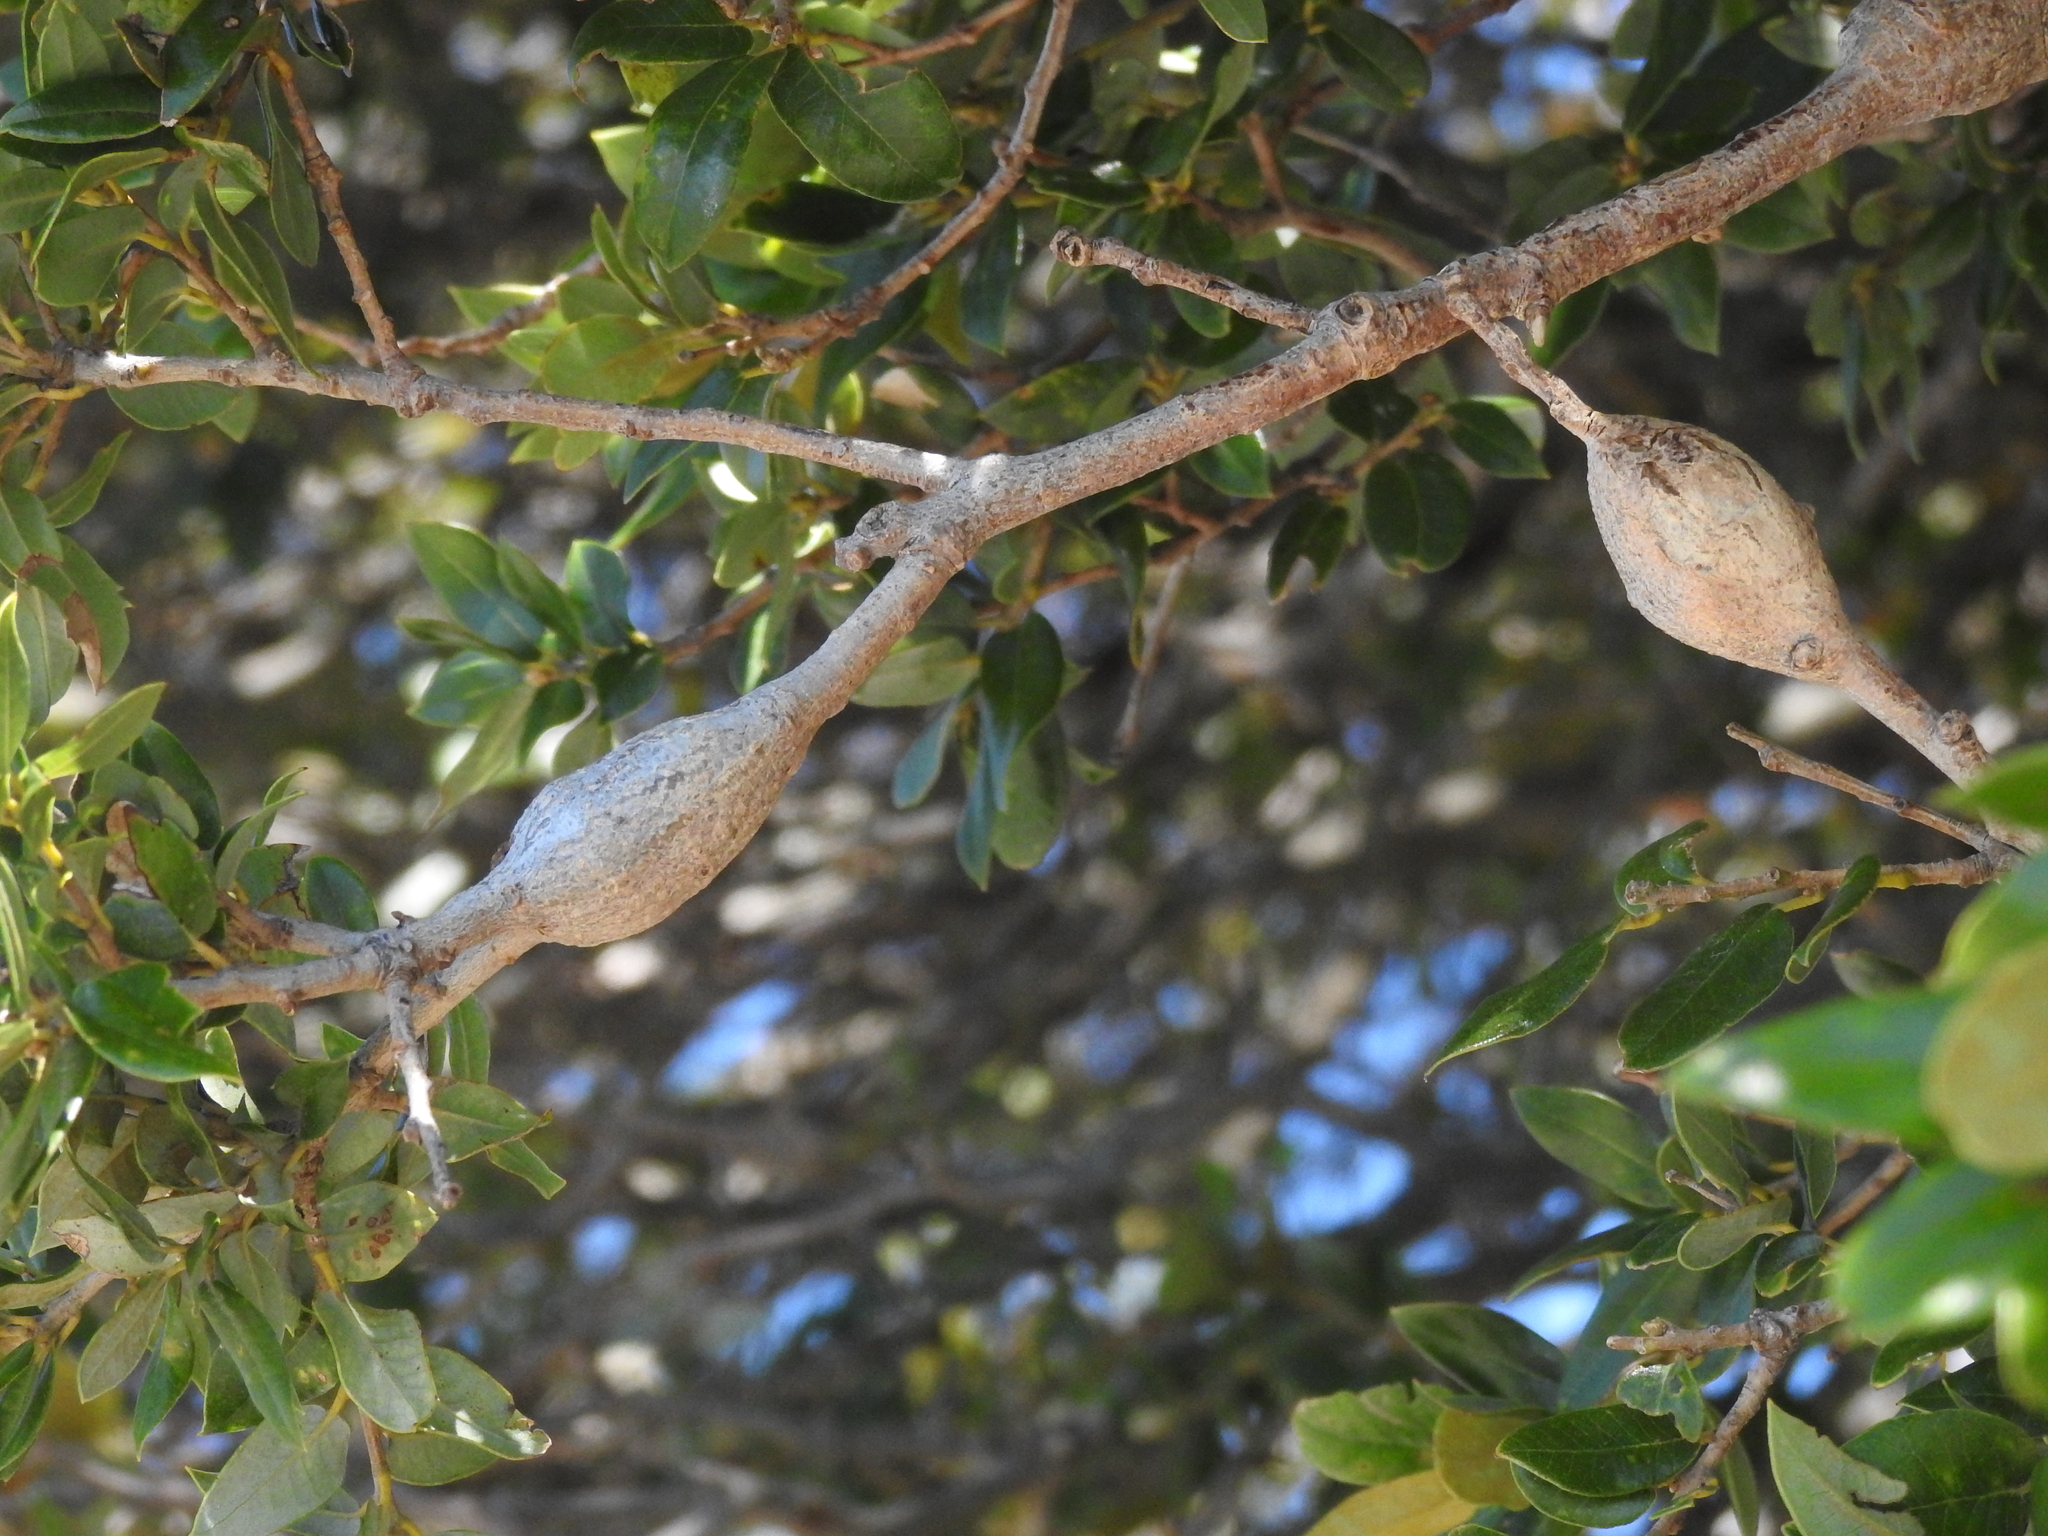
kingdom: Animalia
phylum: Arthropoda
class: Insecta
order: Hymenoptera
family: Cynipidae
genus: Disholcaspis
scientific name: Disholcaspis spectabilis
